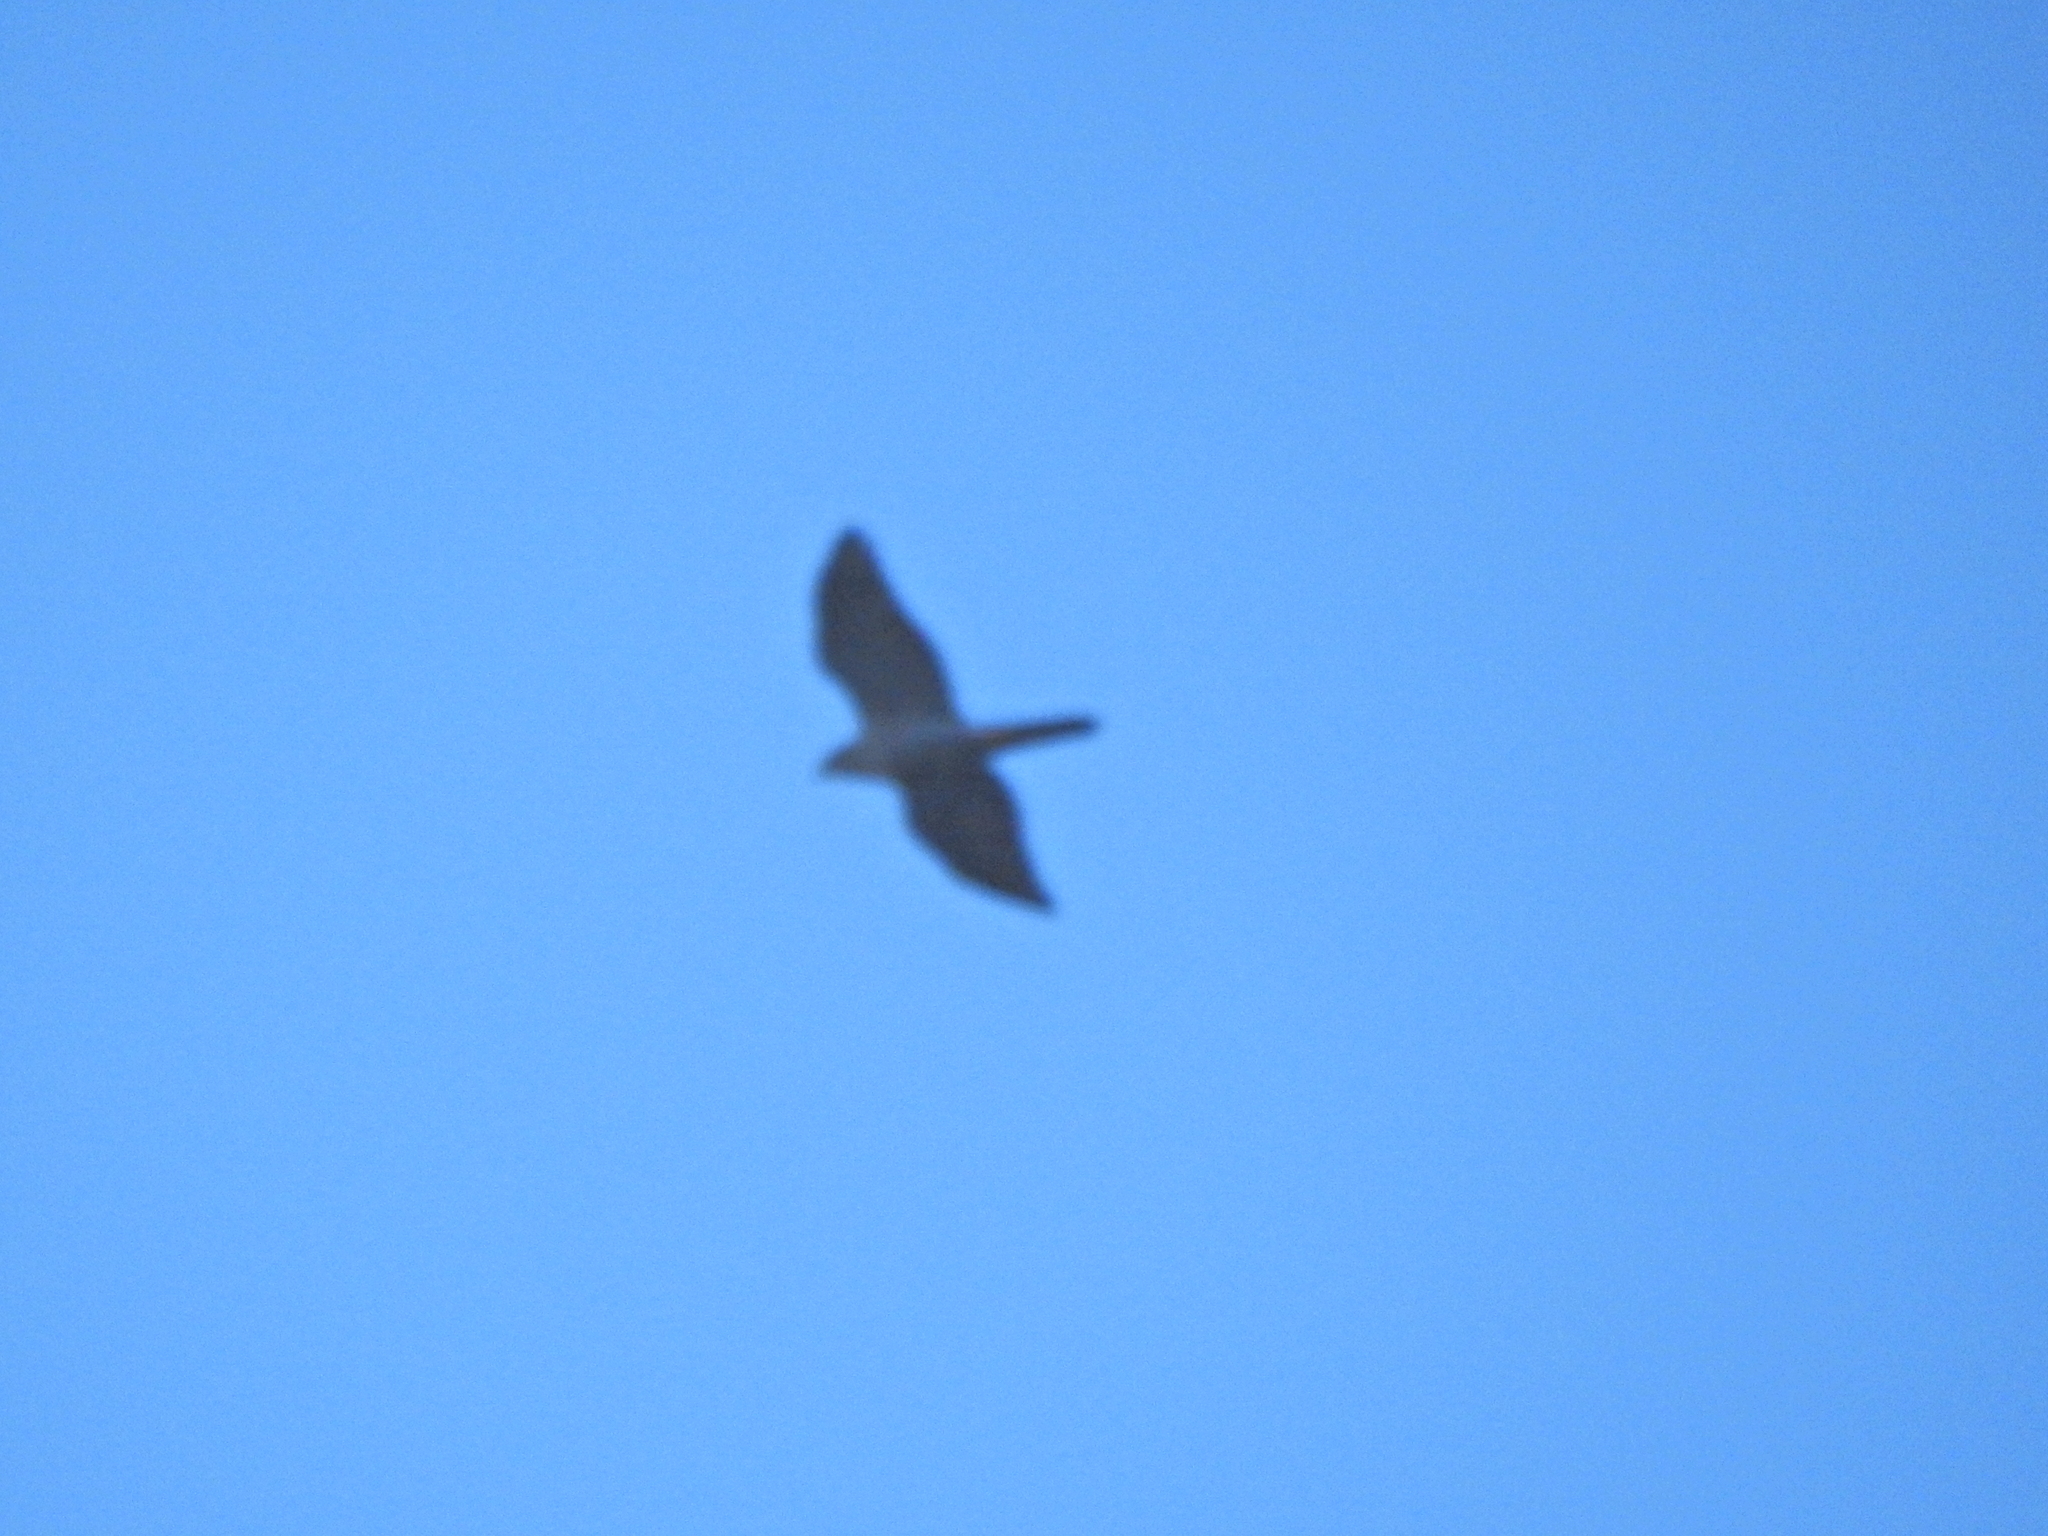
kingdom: Animalia
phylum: Chordata
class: Aves
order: Accipitriformes
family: Accipitridae
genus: Accipiter
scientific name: Accipiter gentilis
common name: Northern goshawk
